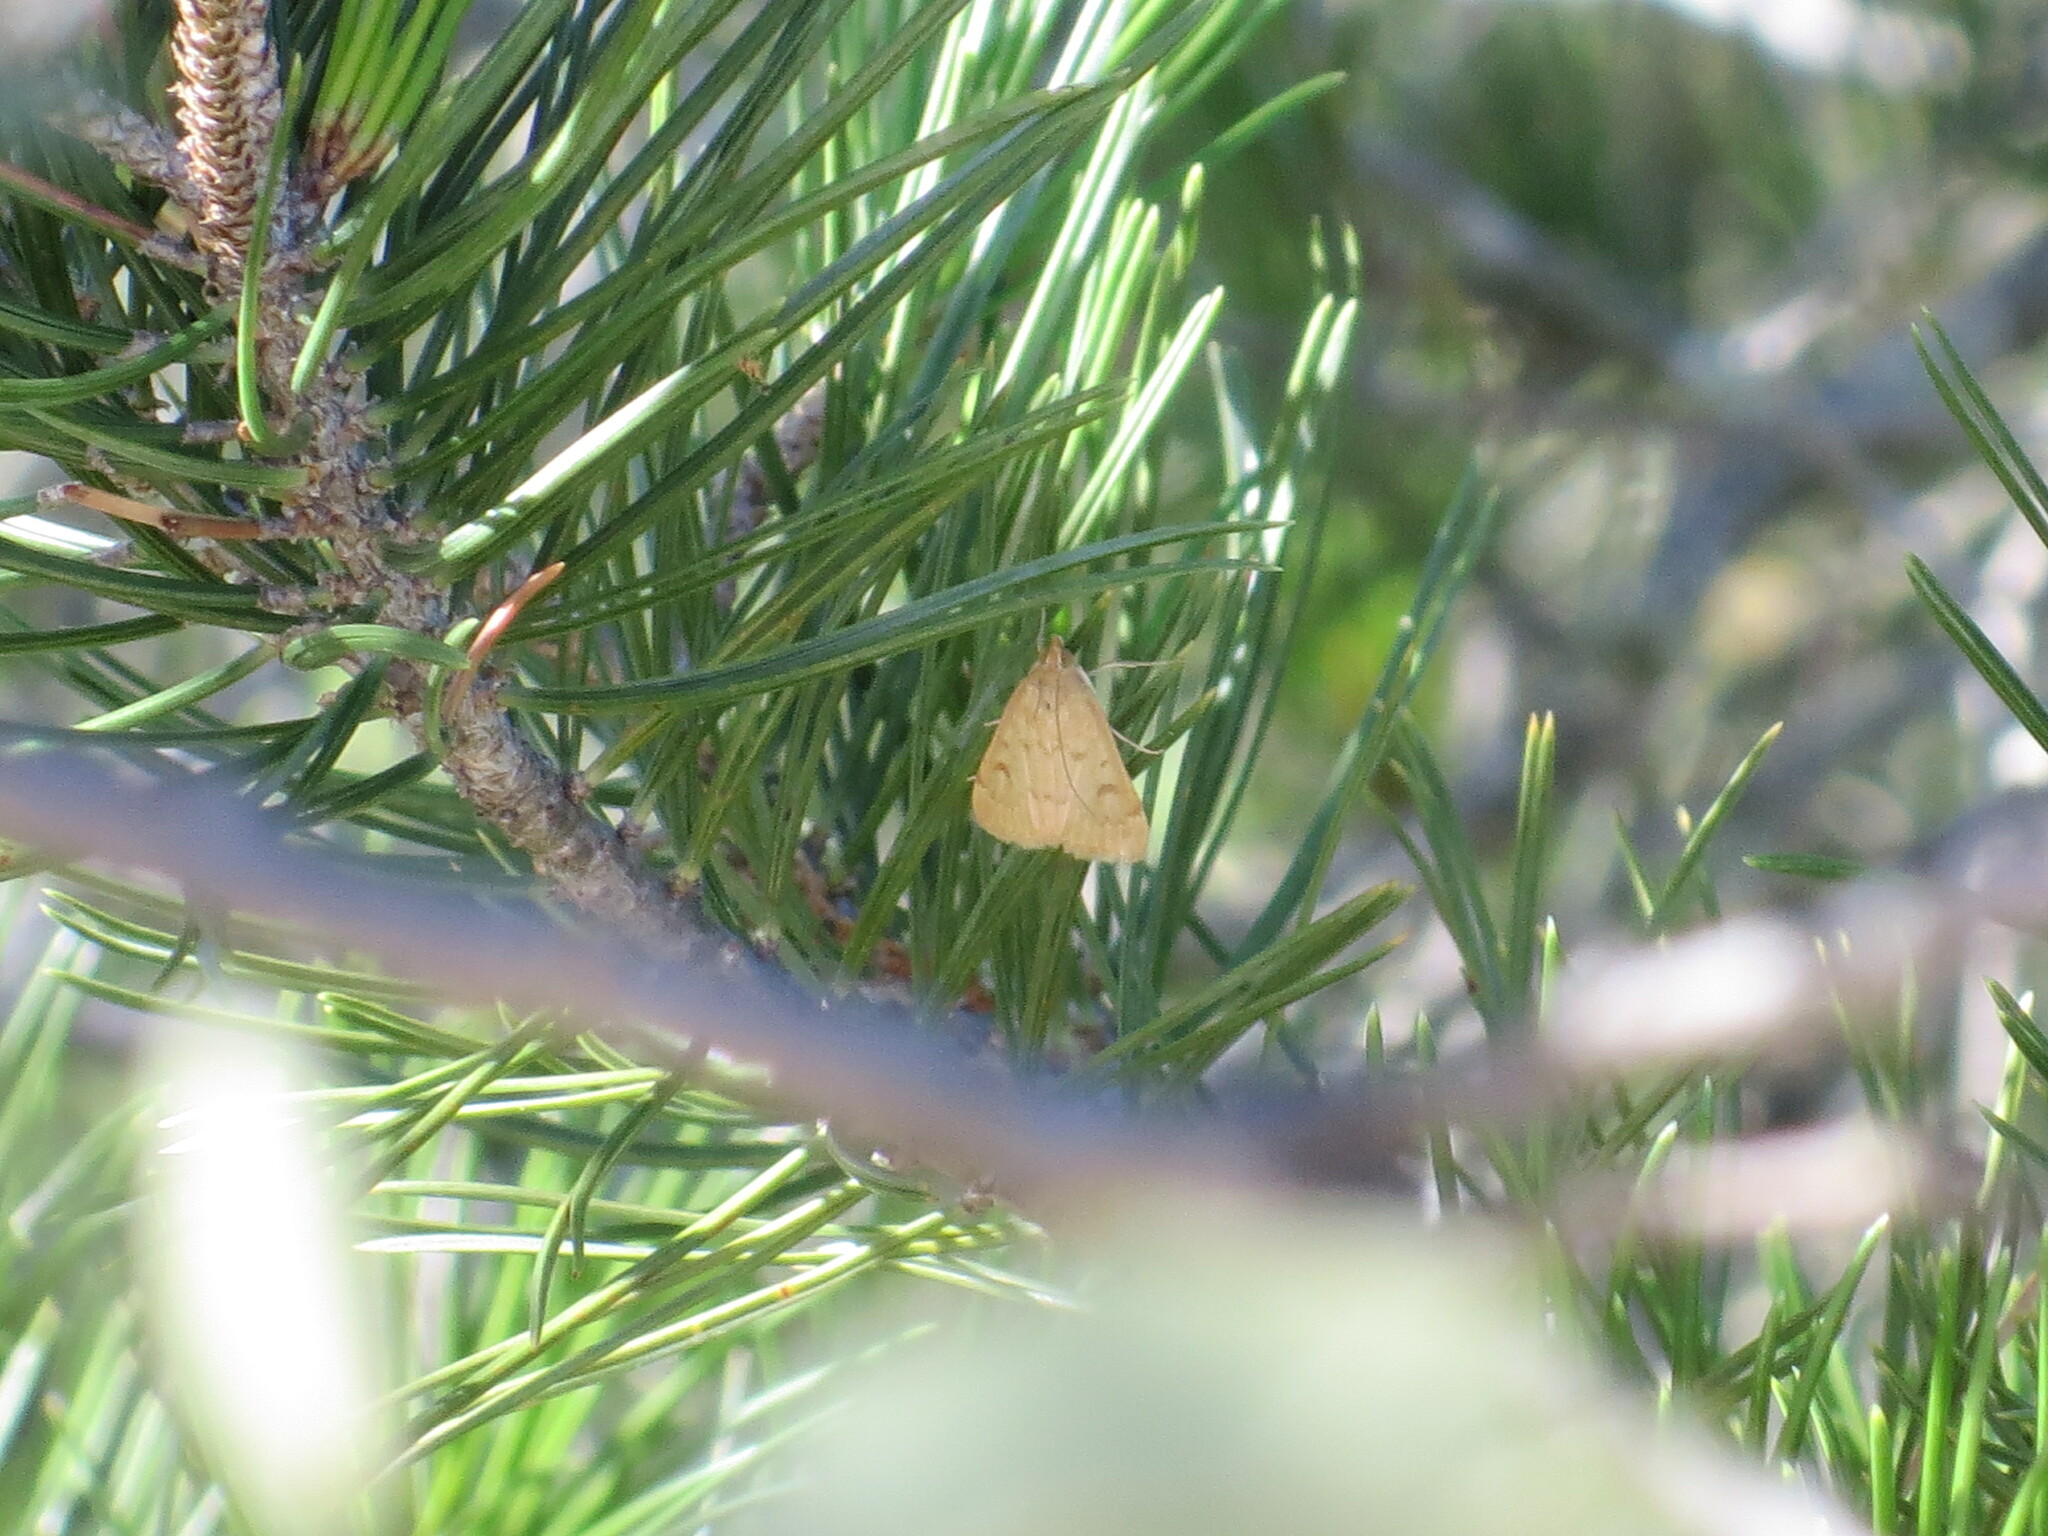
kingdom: Animalia
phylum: Arthropoda
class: Insecta
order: Lepidoptera
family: Crambidae
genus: Achyra
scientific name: Achyra rantalis
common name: Garden webworm
